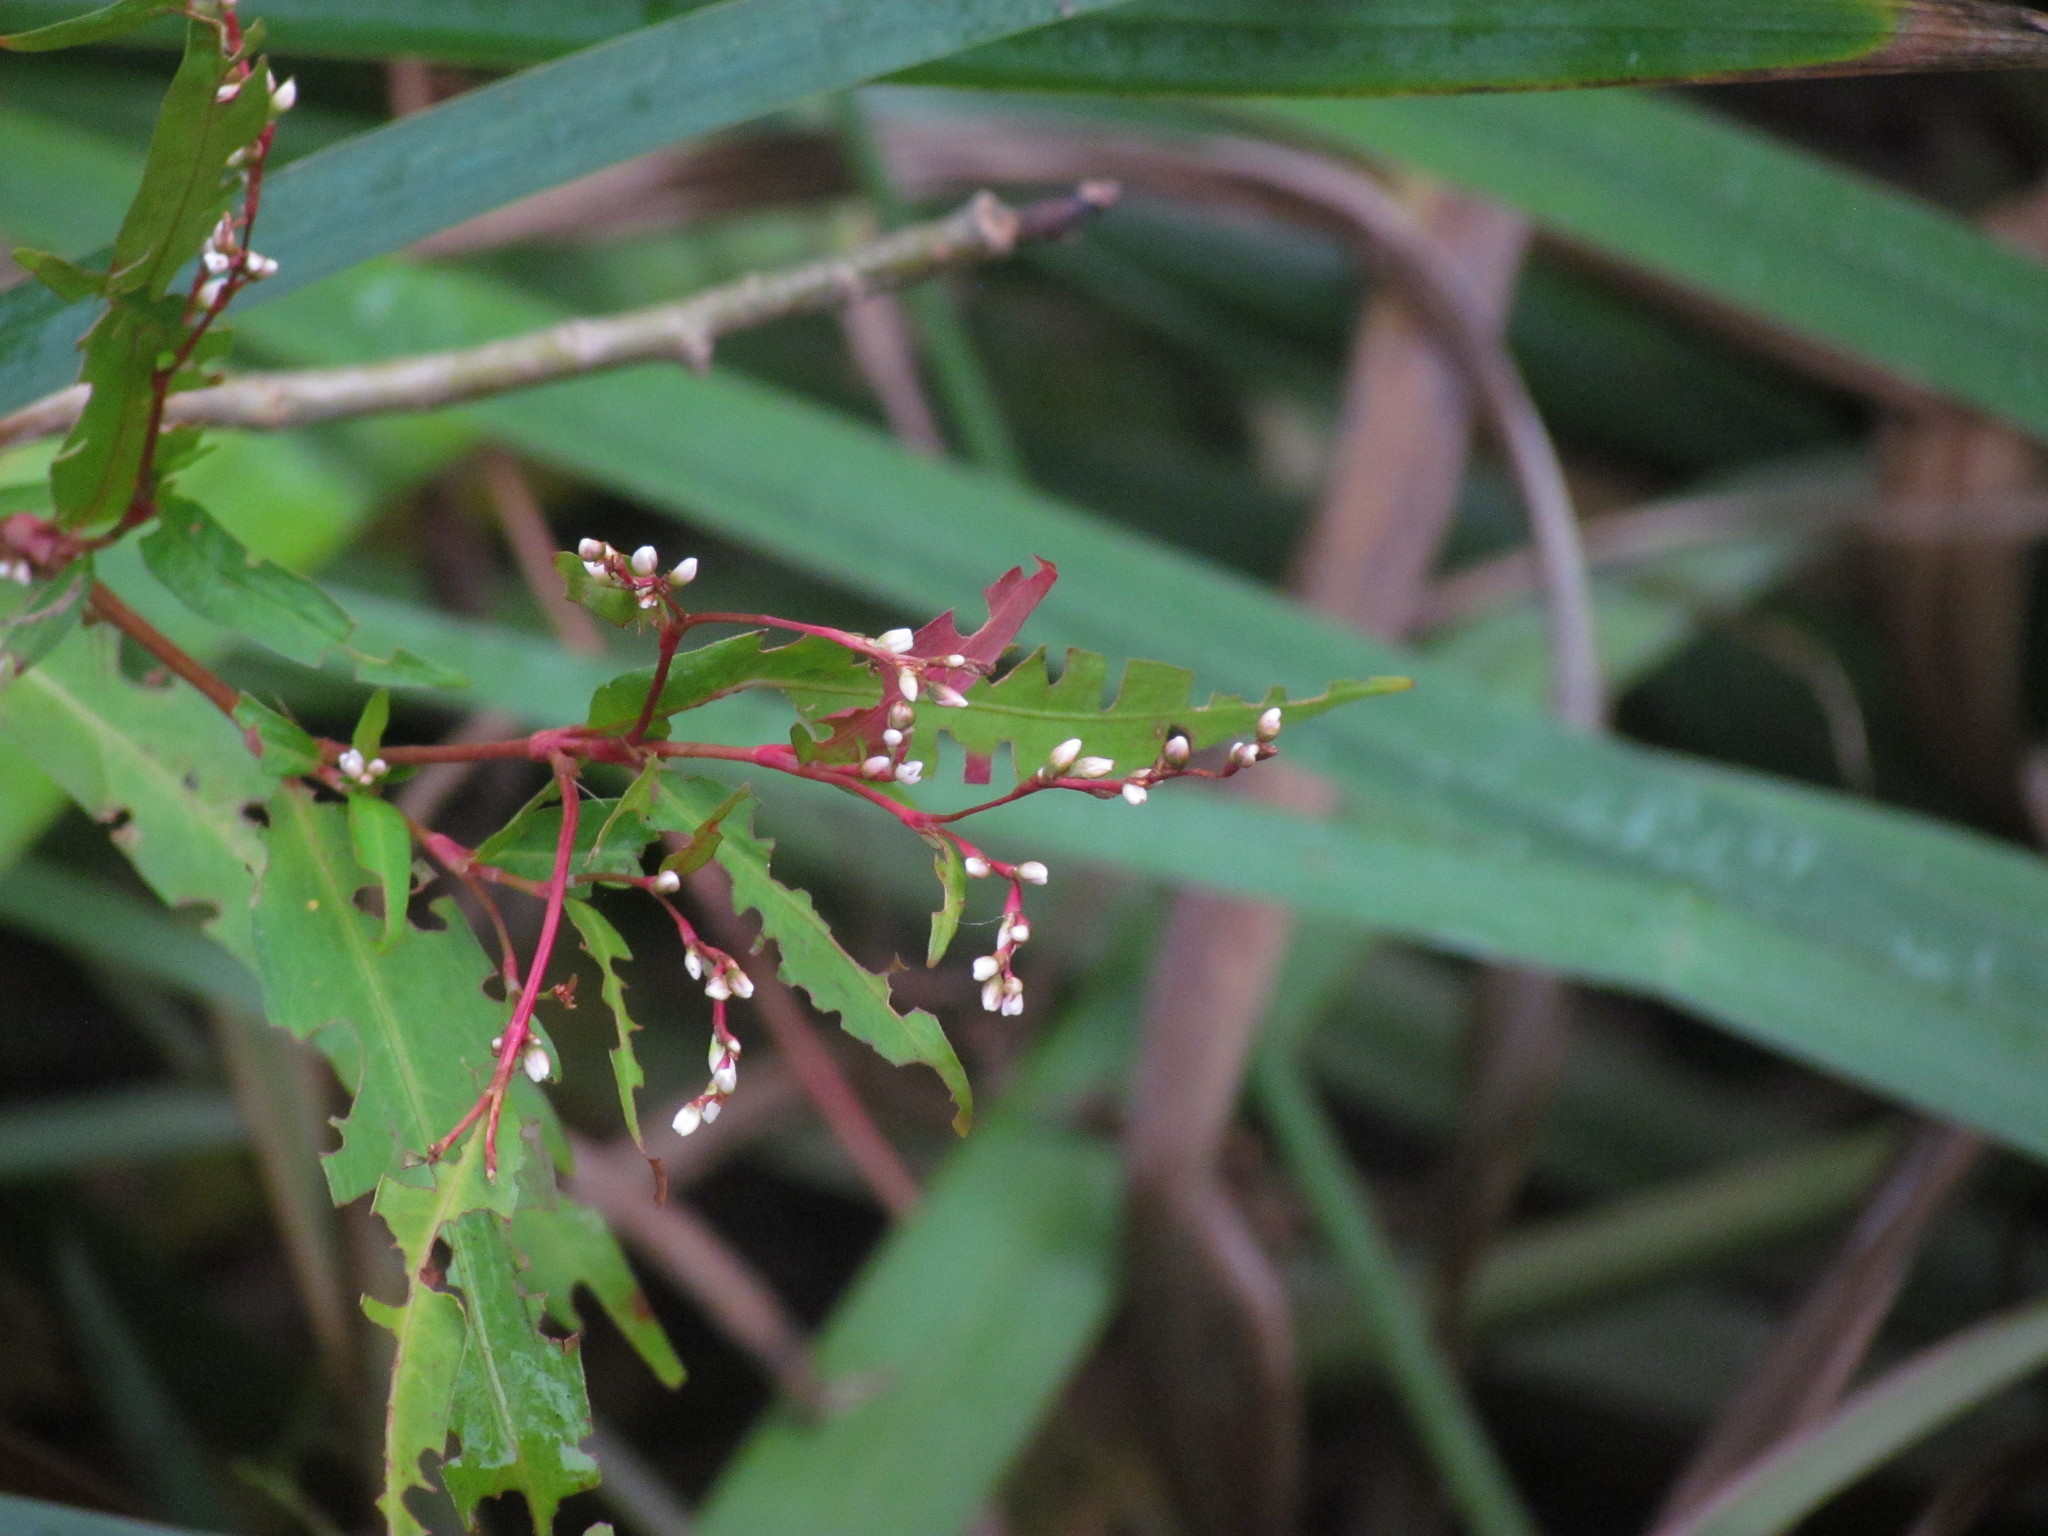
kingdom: Plantae
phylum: Tracheophyta
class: Magnoliopsida
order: Caryophyllales
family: Polygonaceae
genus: Muehlenbeckia
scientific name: Muehlenbeckia sagittifolia
